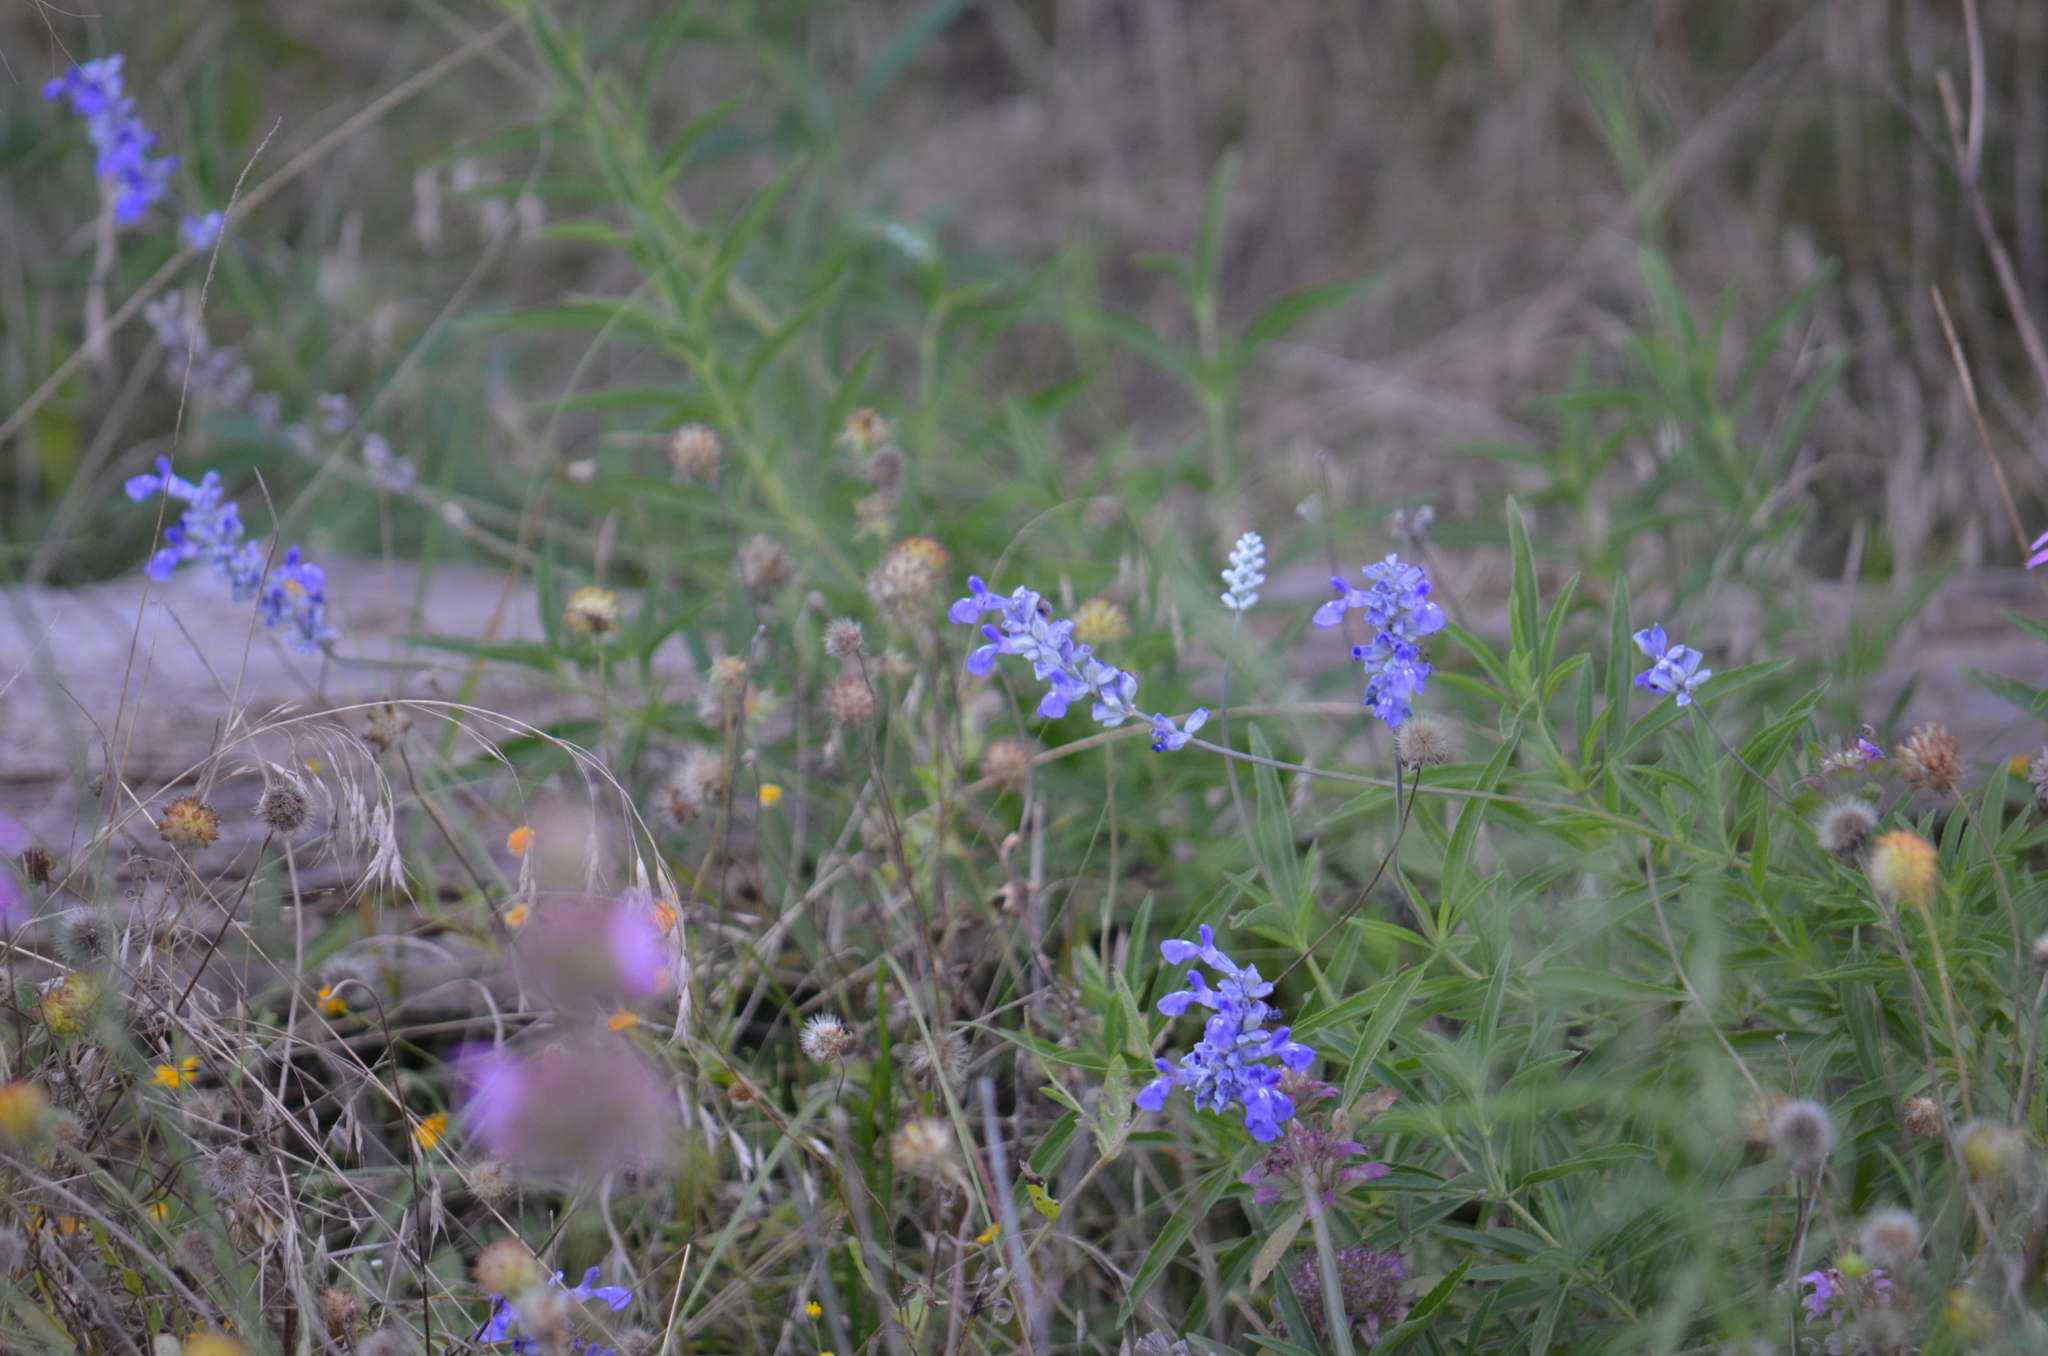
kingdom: Plantae
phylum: Tracheophyta
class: Magnoliopsida
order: Lamiales
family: Lamiaceae
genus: Salvia
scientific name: Salvia farinacea
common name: Mealy sage
